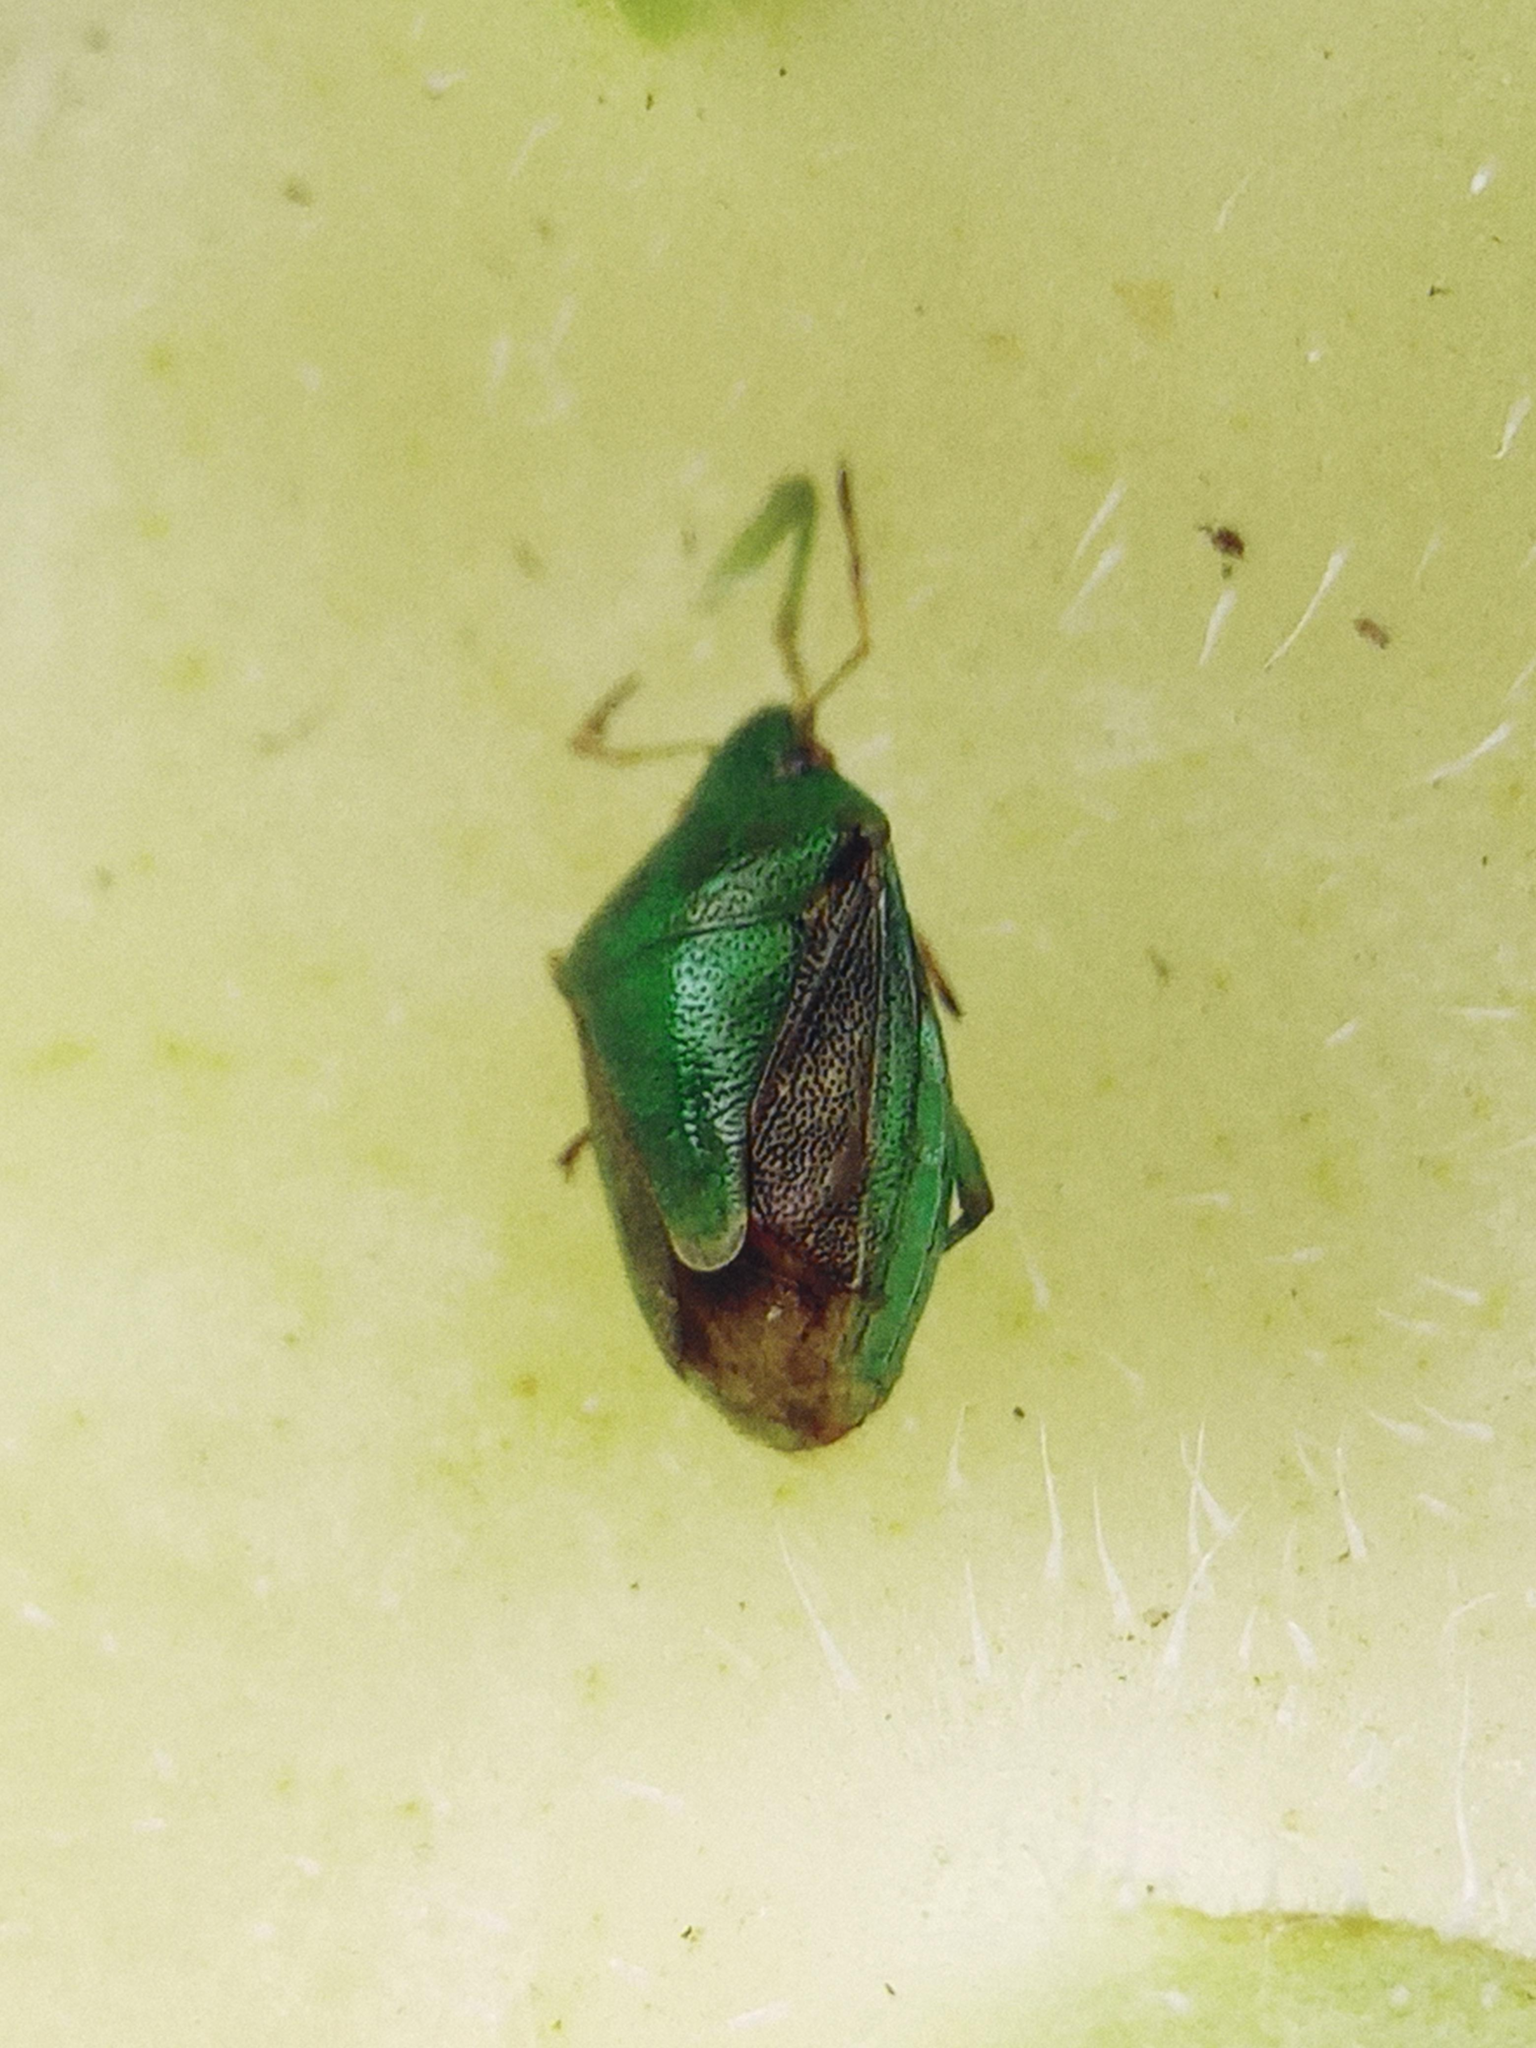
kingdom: Animalia
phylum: Arthropoda
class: Insecta
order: Hemiptera
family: Pentatomidae
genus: Plautia
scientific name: Plautia affinis
